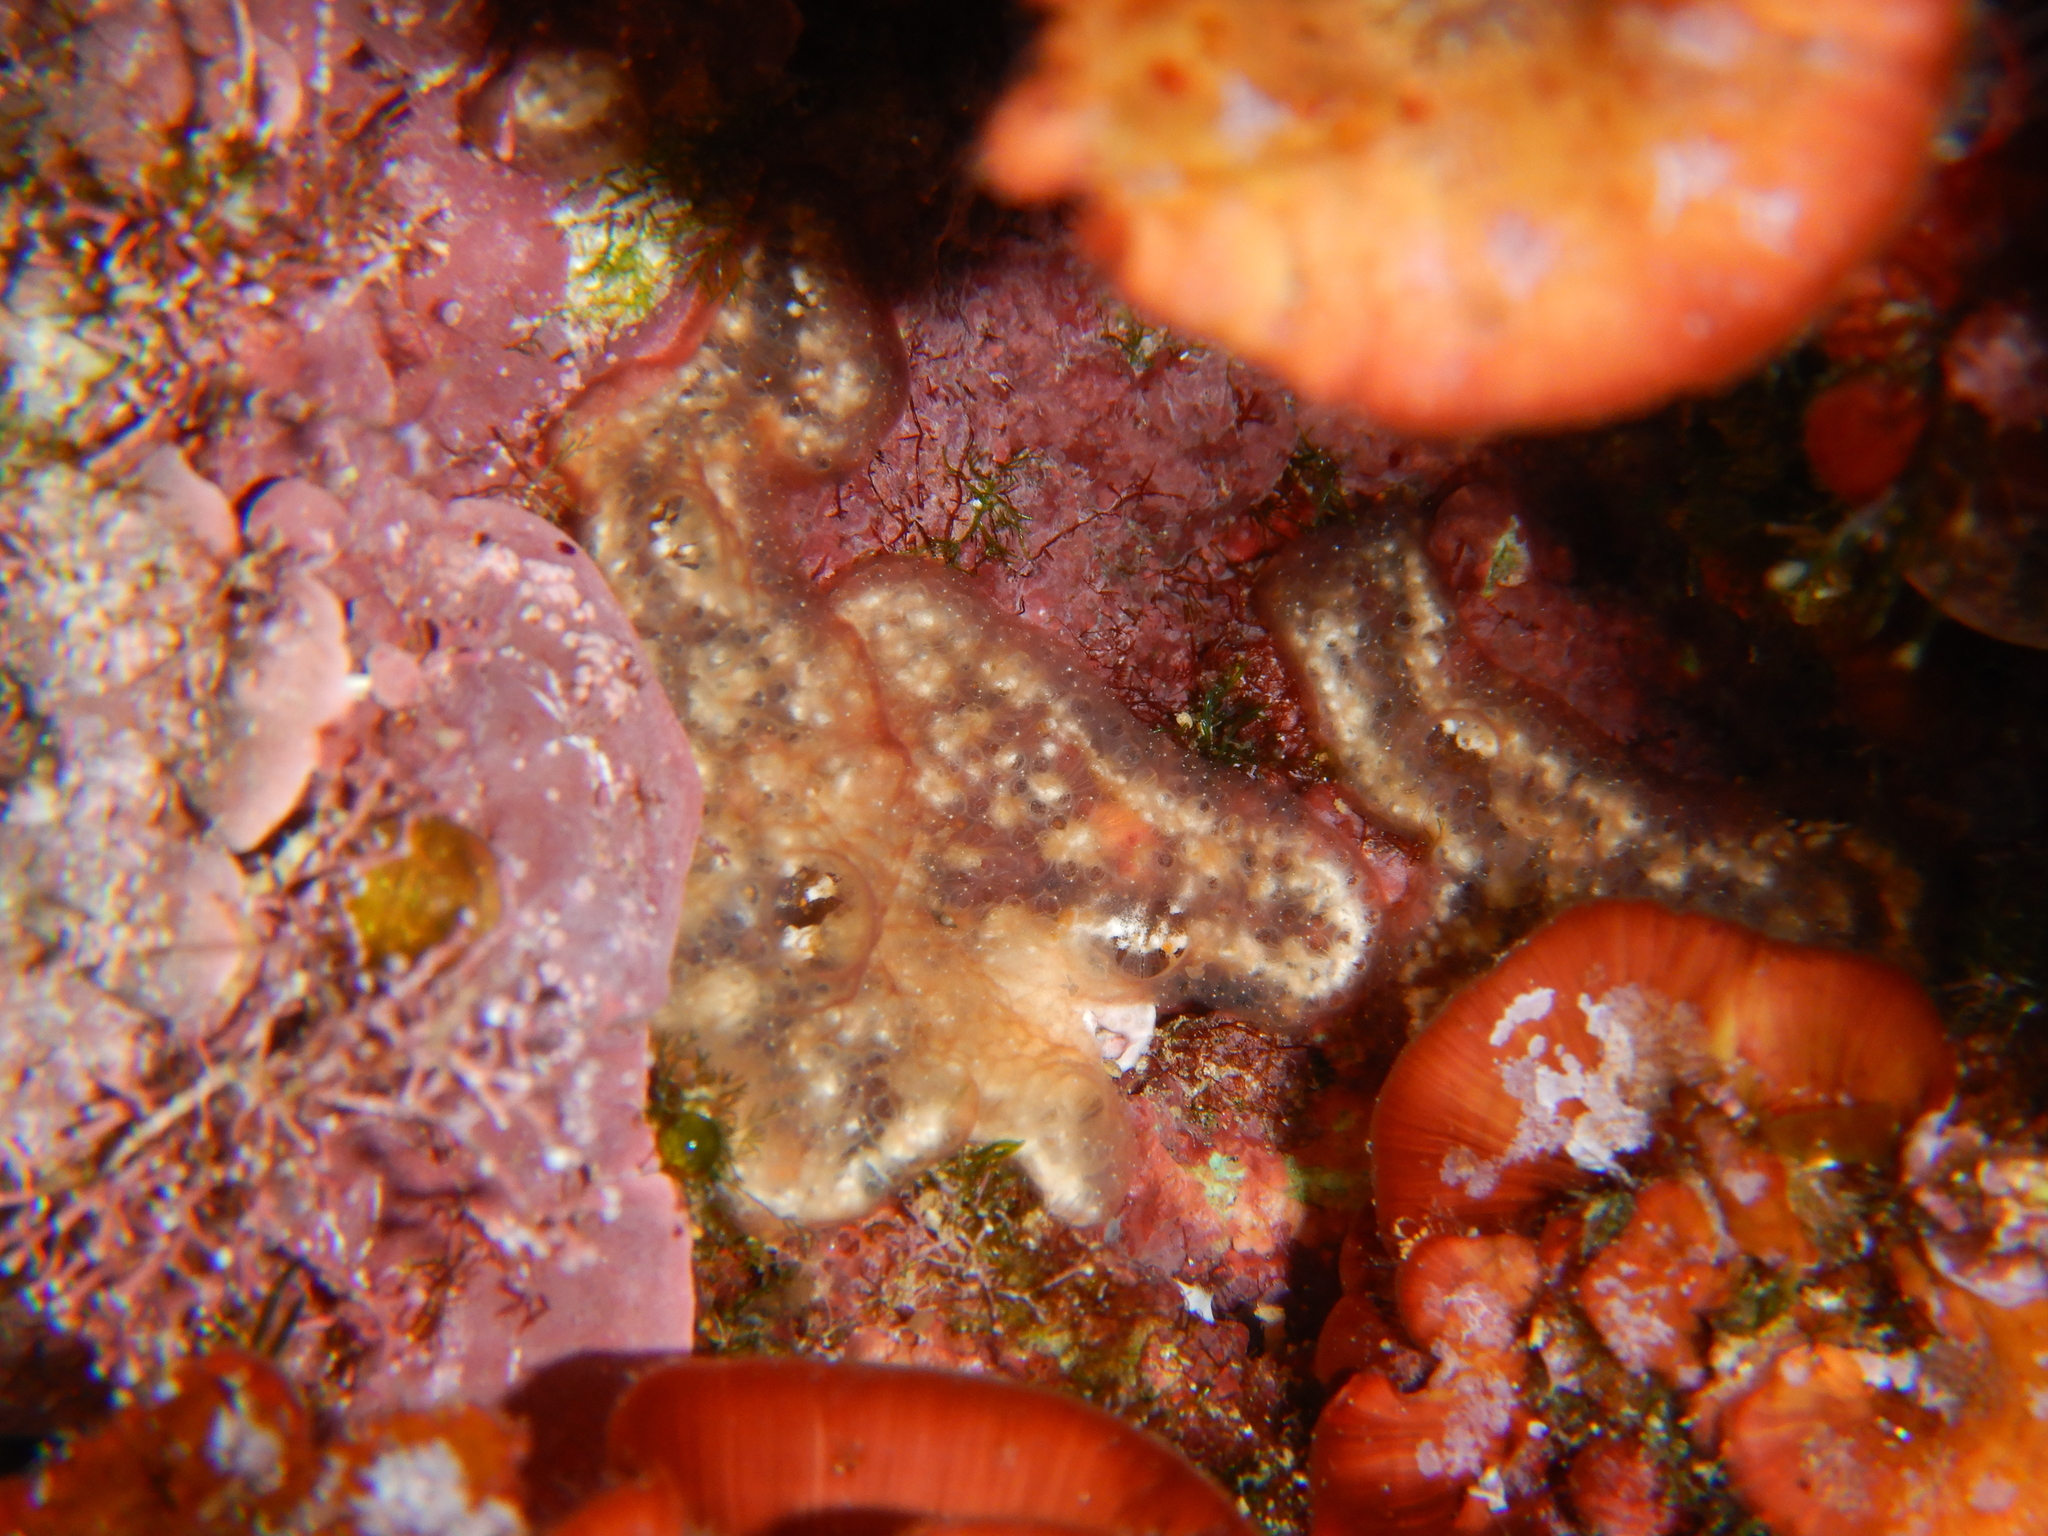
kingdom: Animalia
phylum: Chordata
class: Ascidiacea
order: Aplousobranchia
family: Didemnidae
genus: Didemnum
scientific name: Didemnum lahillei
